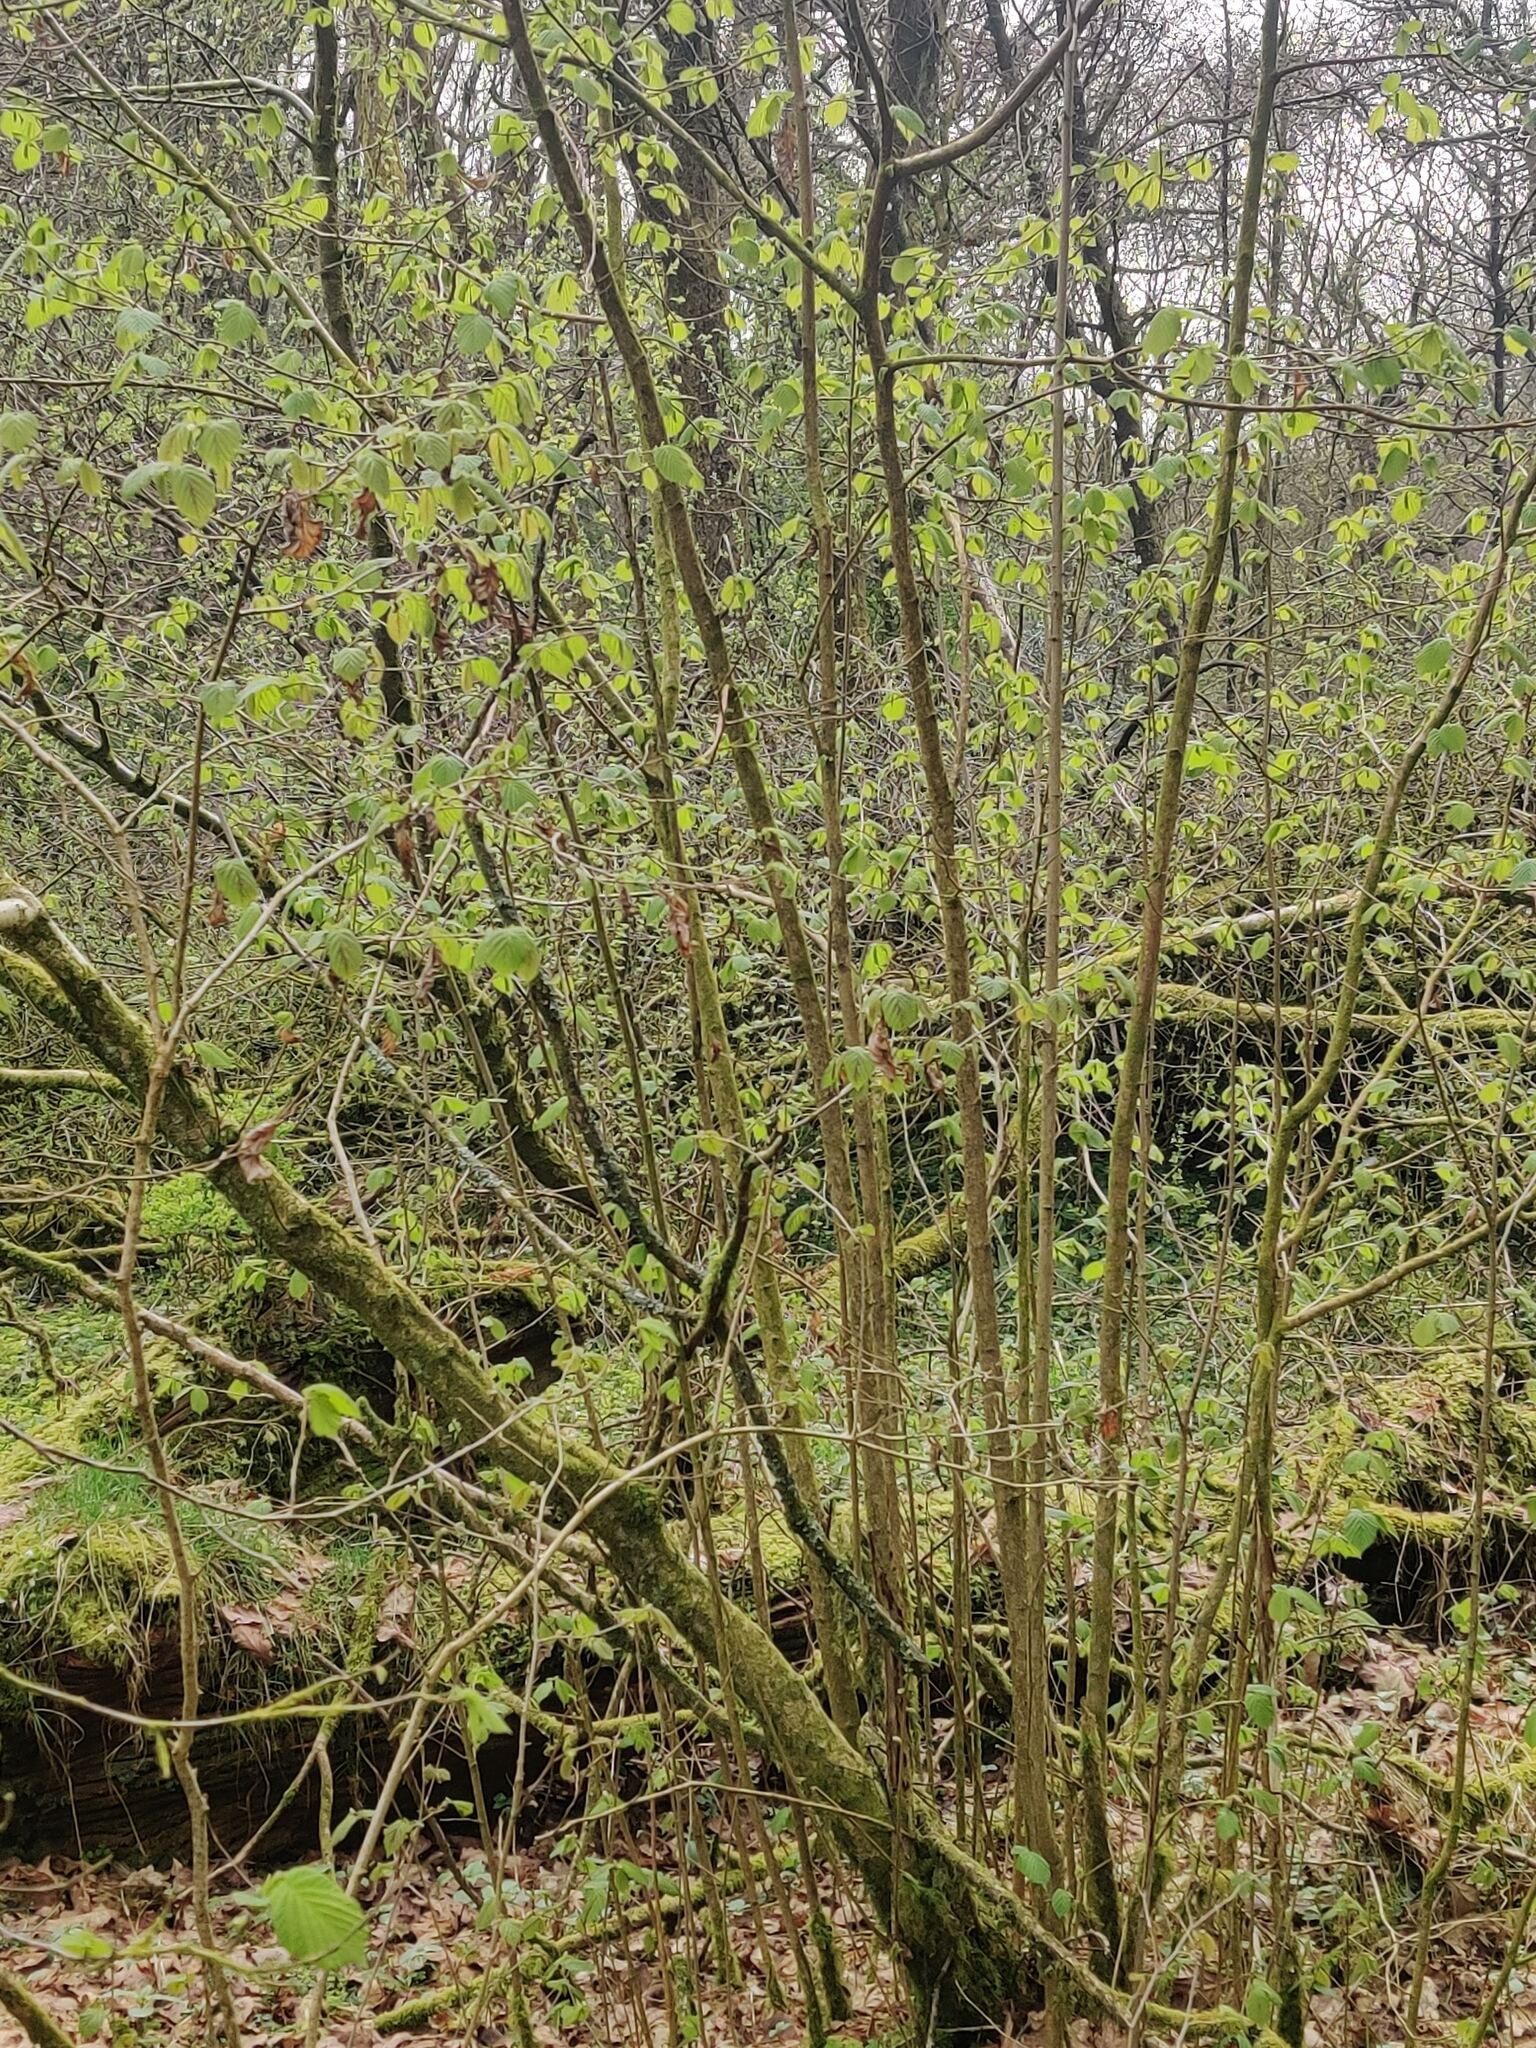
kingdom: Plantae
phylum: Tracheophyta
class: Magnoliopsida
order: Fagales
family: Betulaceae
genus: Corylus
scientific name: Corylus avellana
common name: European hazel
